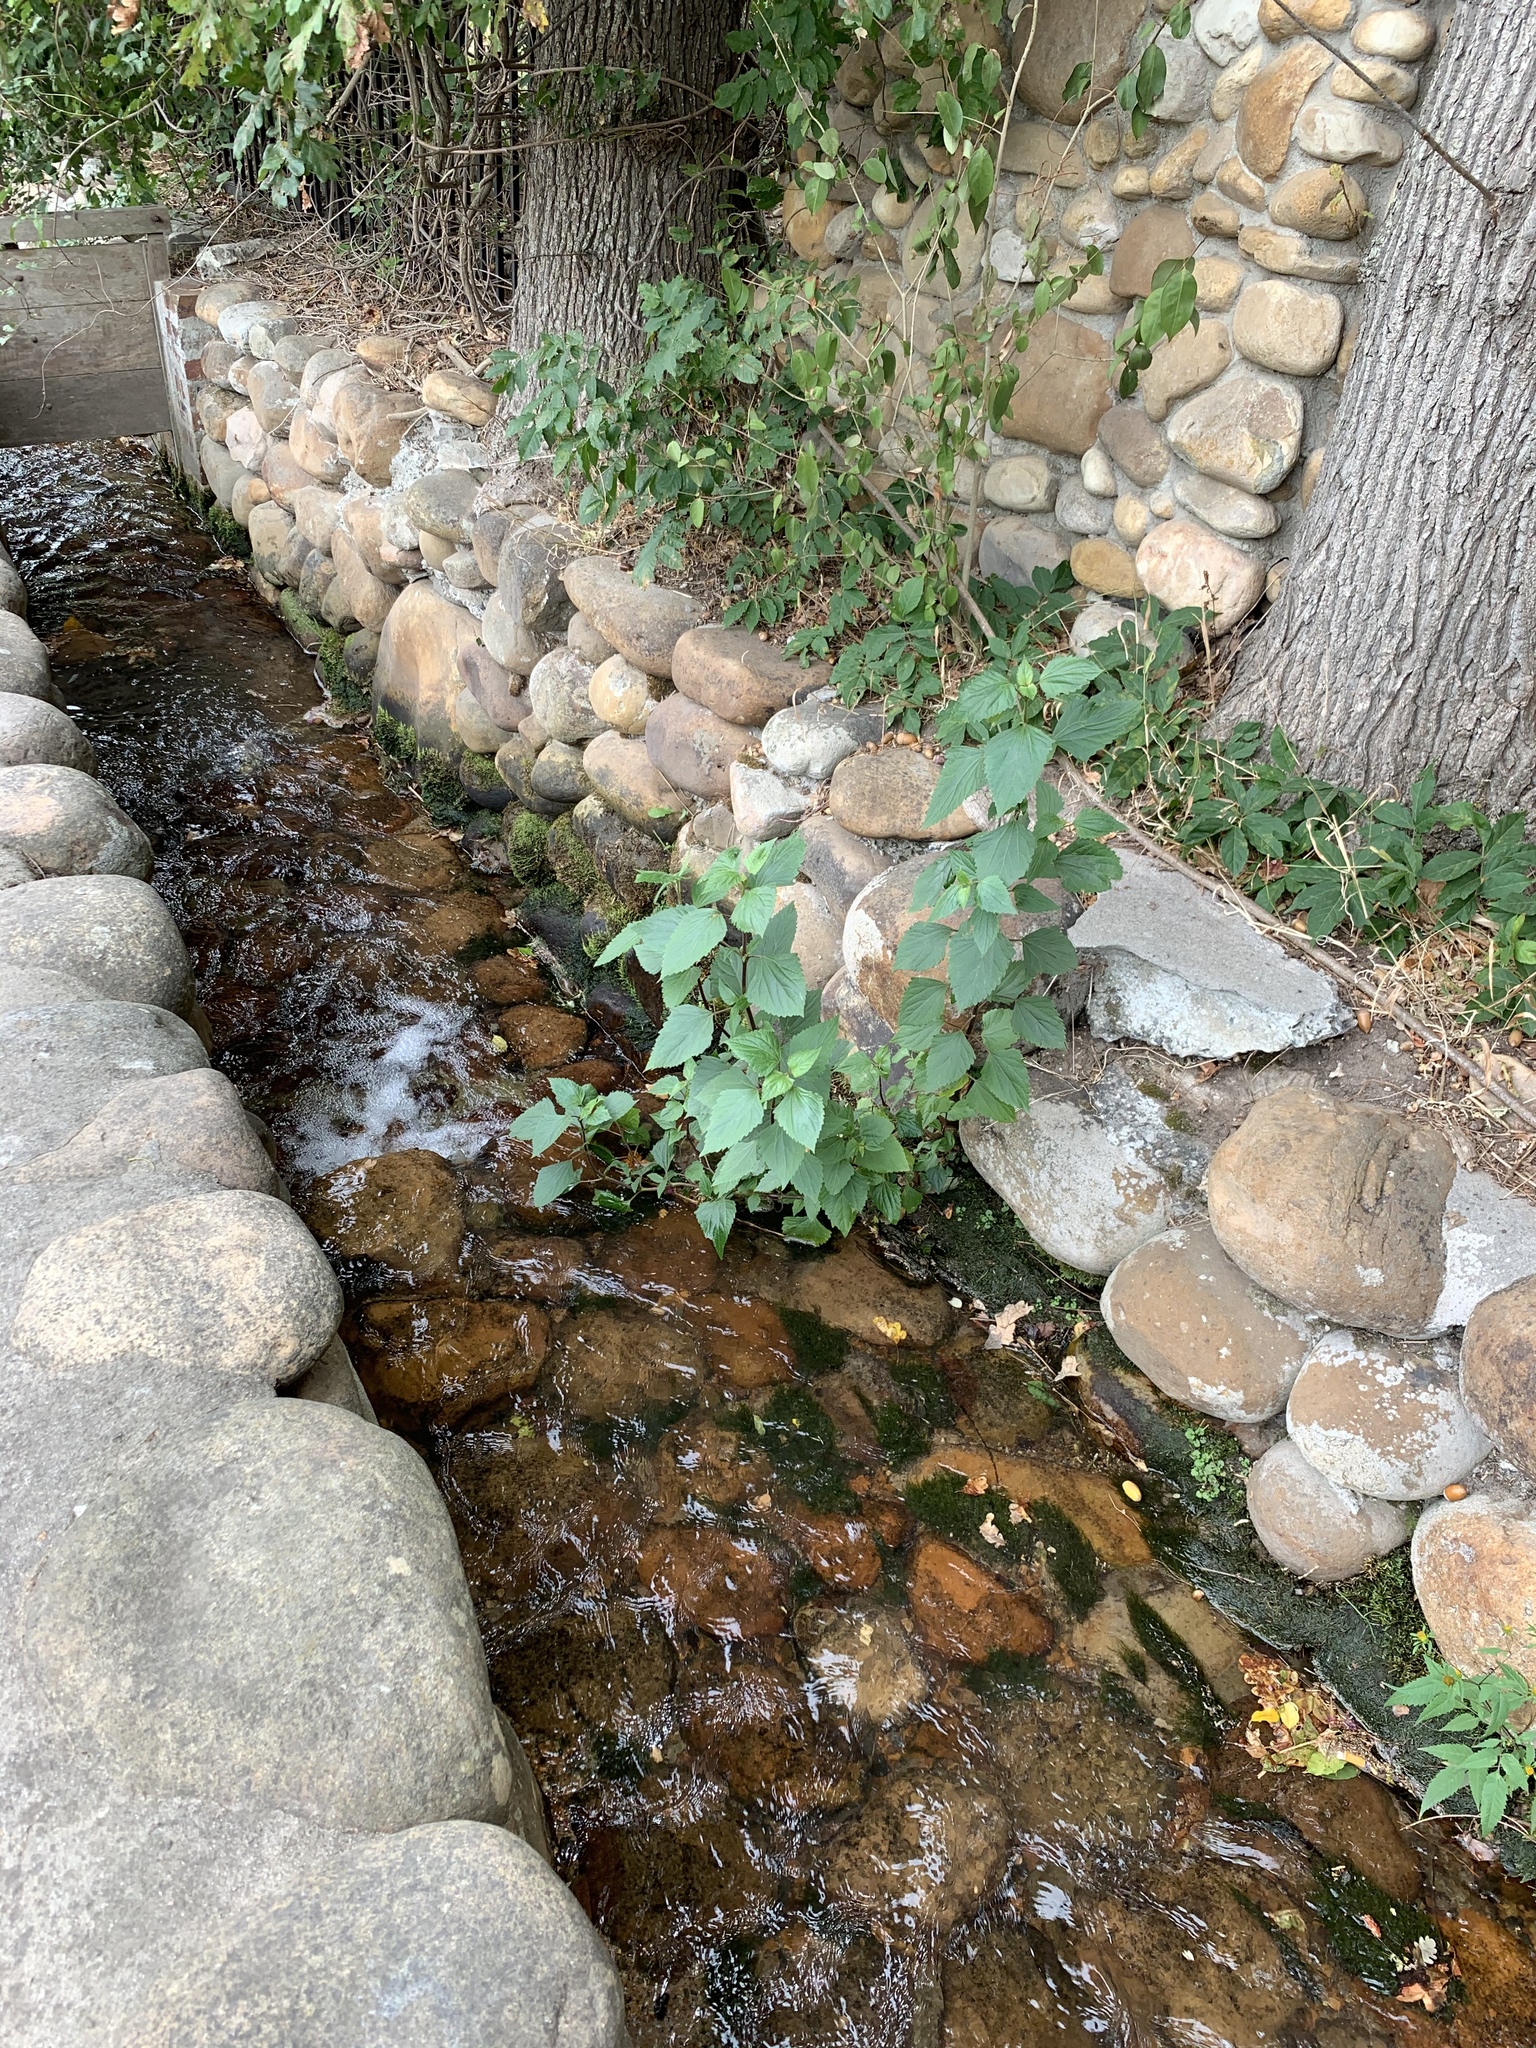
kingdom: Plantae
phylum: Tracheophyta
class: Magnoliopsida
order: Asterales
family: Asteraceae
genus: Ageratina
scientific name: Ageratina adenophora
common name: Sticky snakeroot
